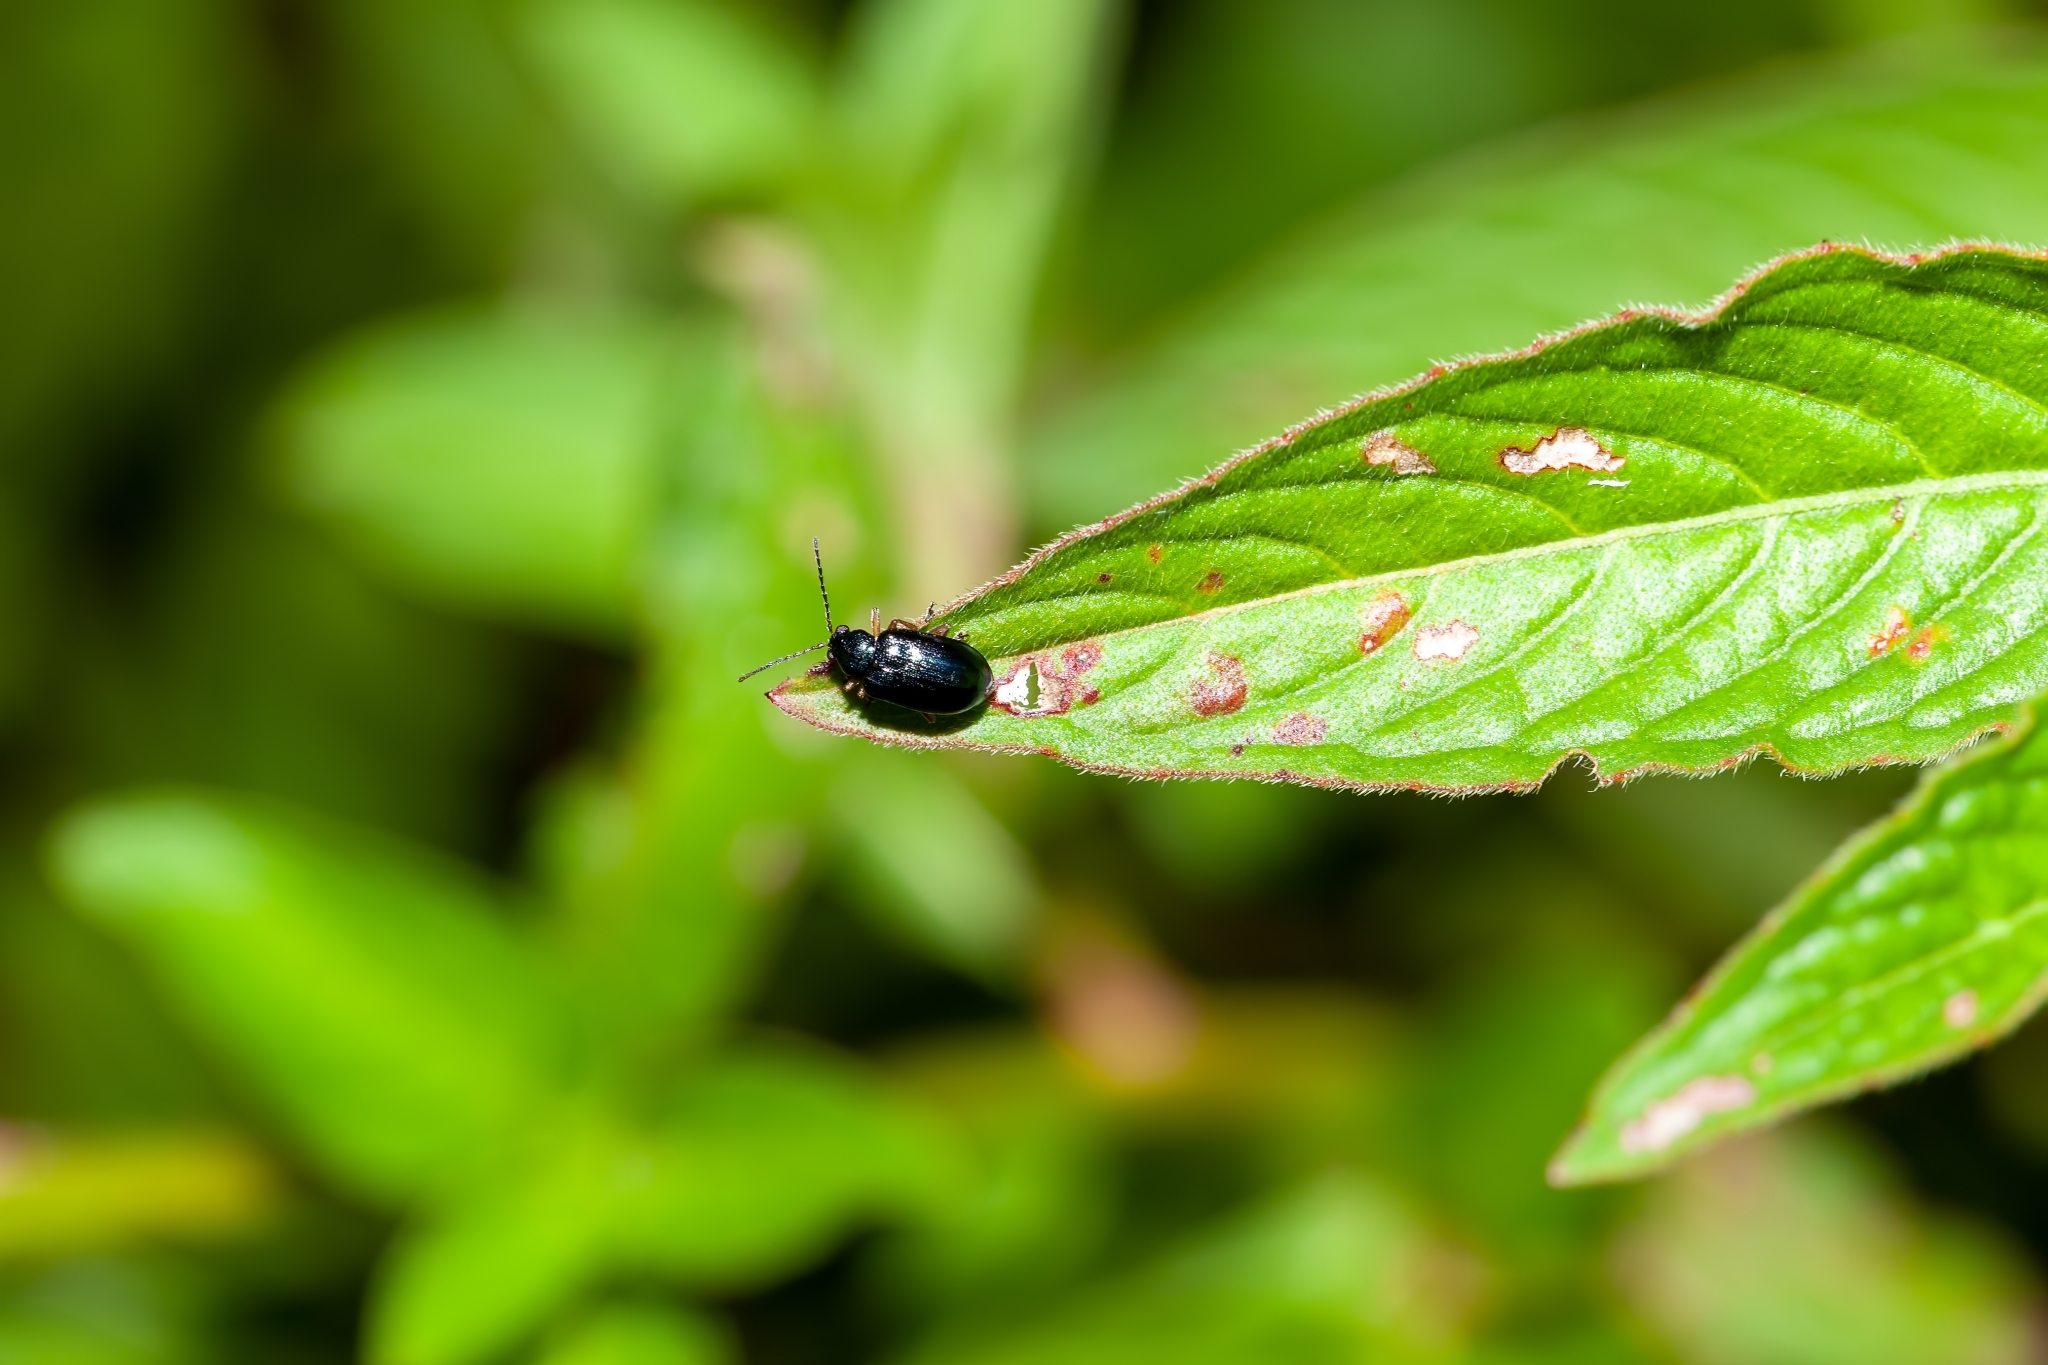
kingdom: Animalia
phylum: Arthropoda
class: Insecta
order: Coleoptera
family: Chrysomelidae
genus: Lysathia
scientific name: Lysathia ludoviciana
